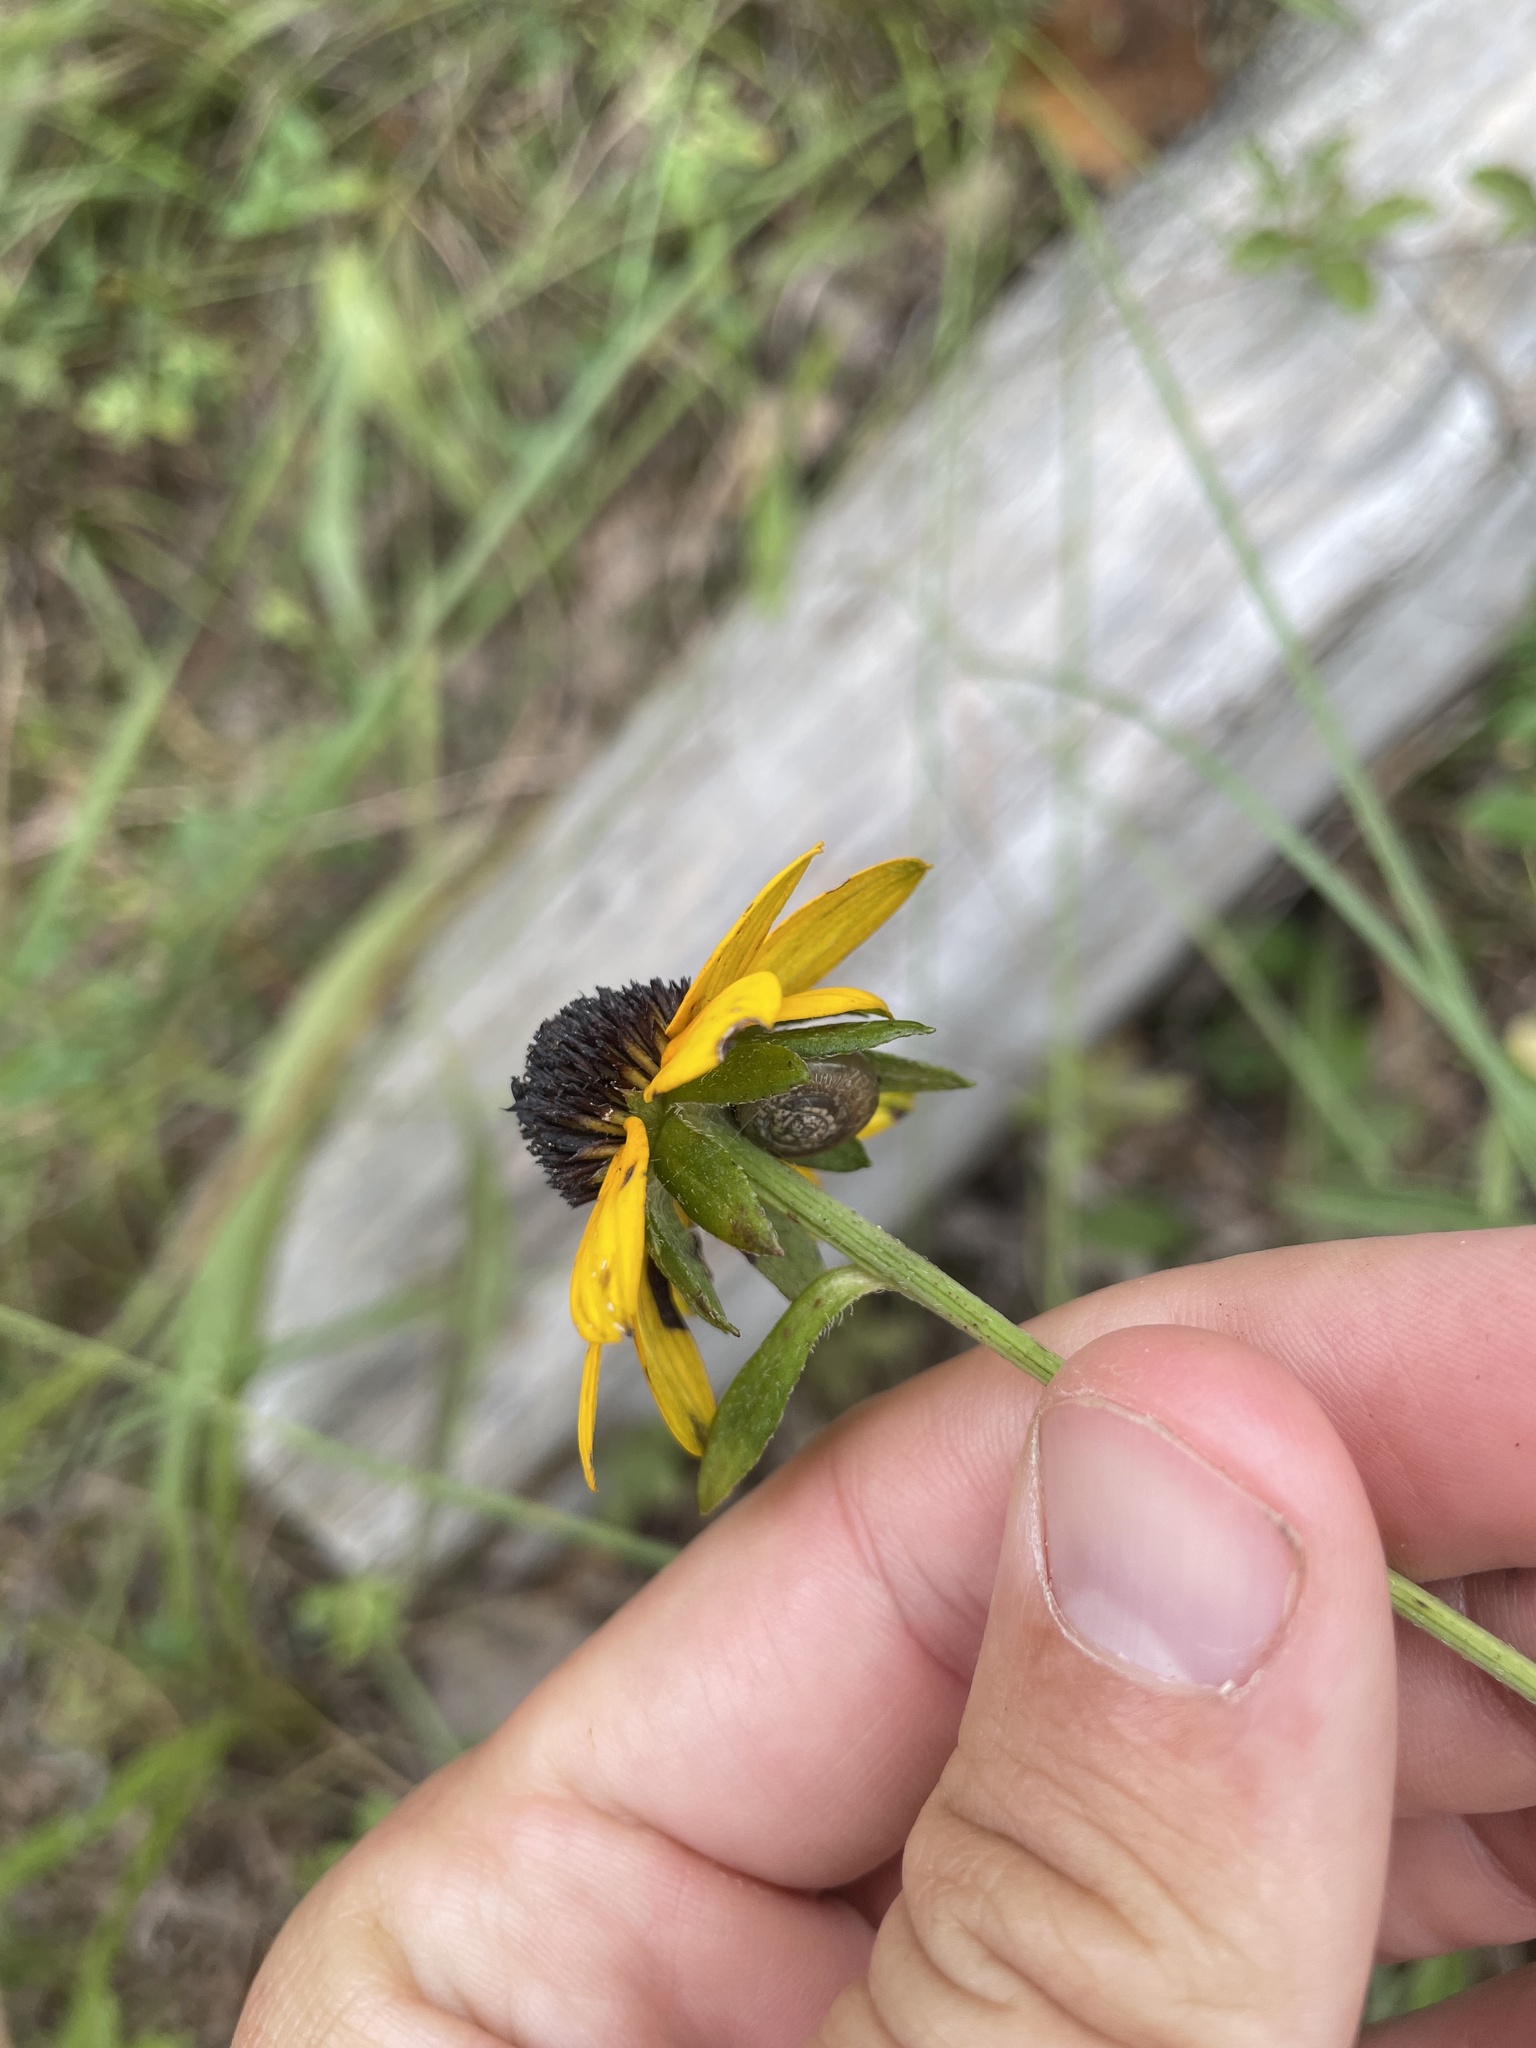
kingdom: Plantae
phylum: Tracheophyta
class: Magnoliopsida
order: Asterales
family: Asteraceae
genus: Rudbeckia
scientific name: Rudbeckia hirta
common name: Black-eyed-susan
